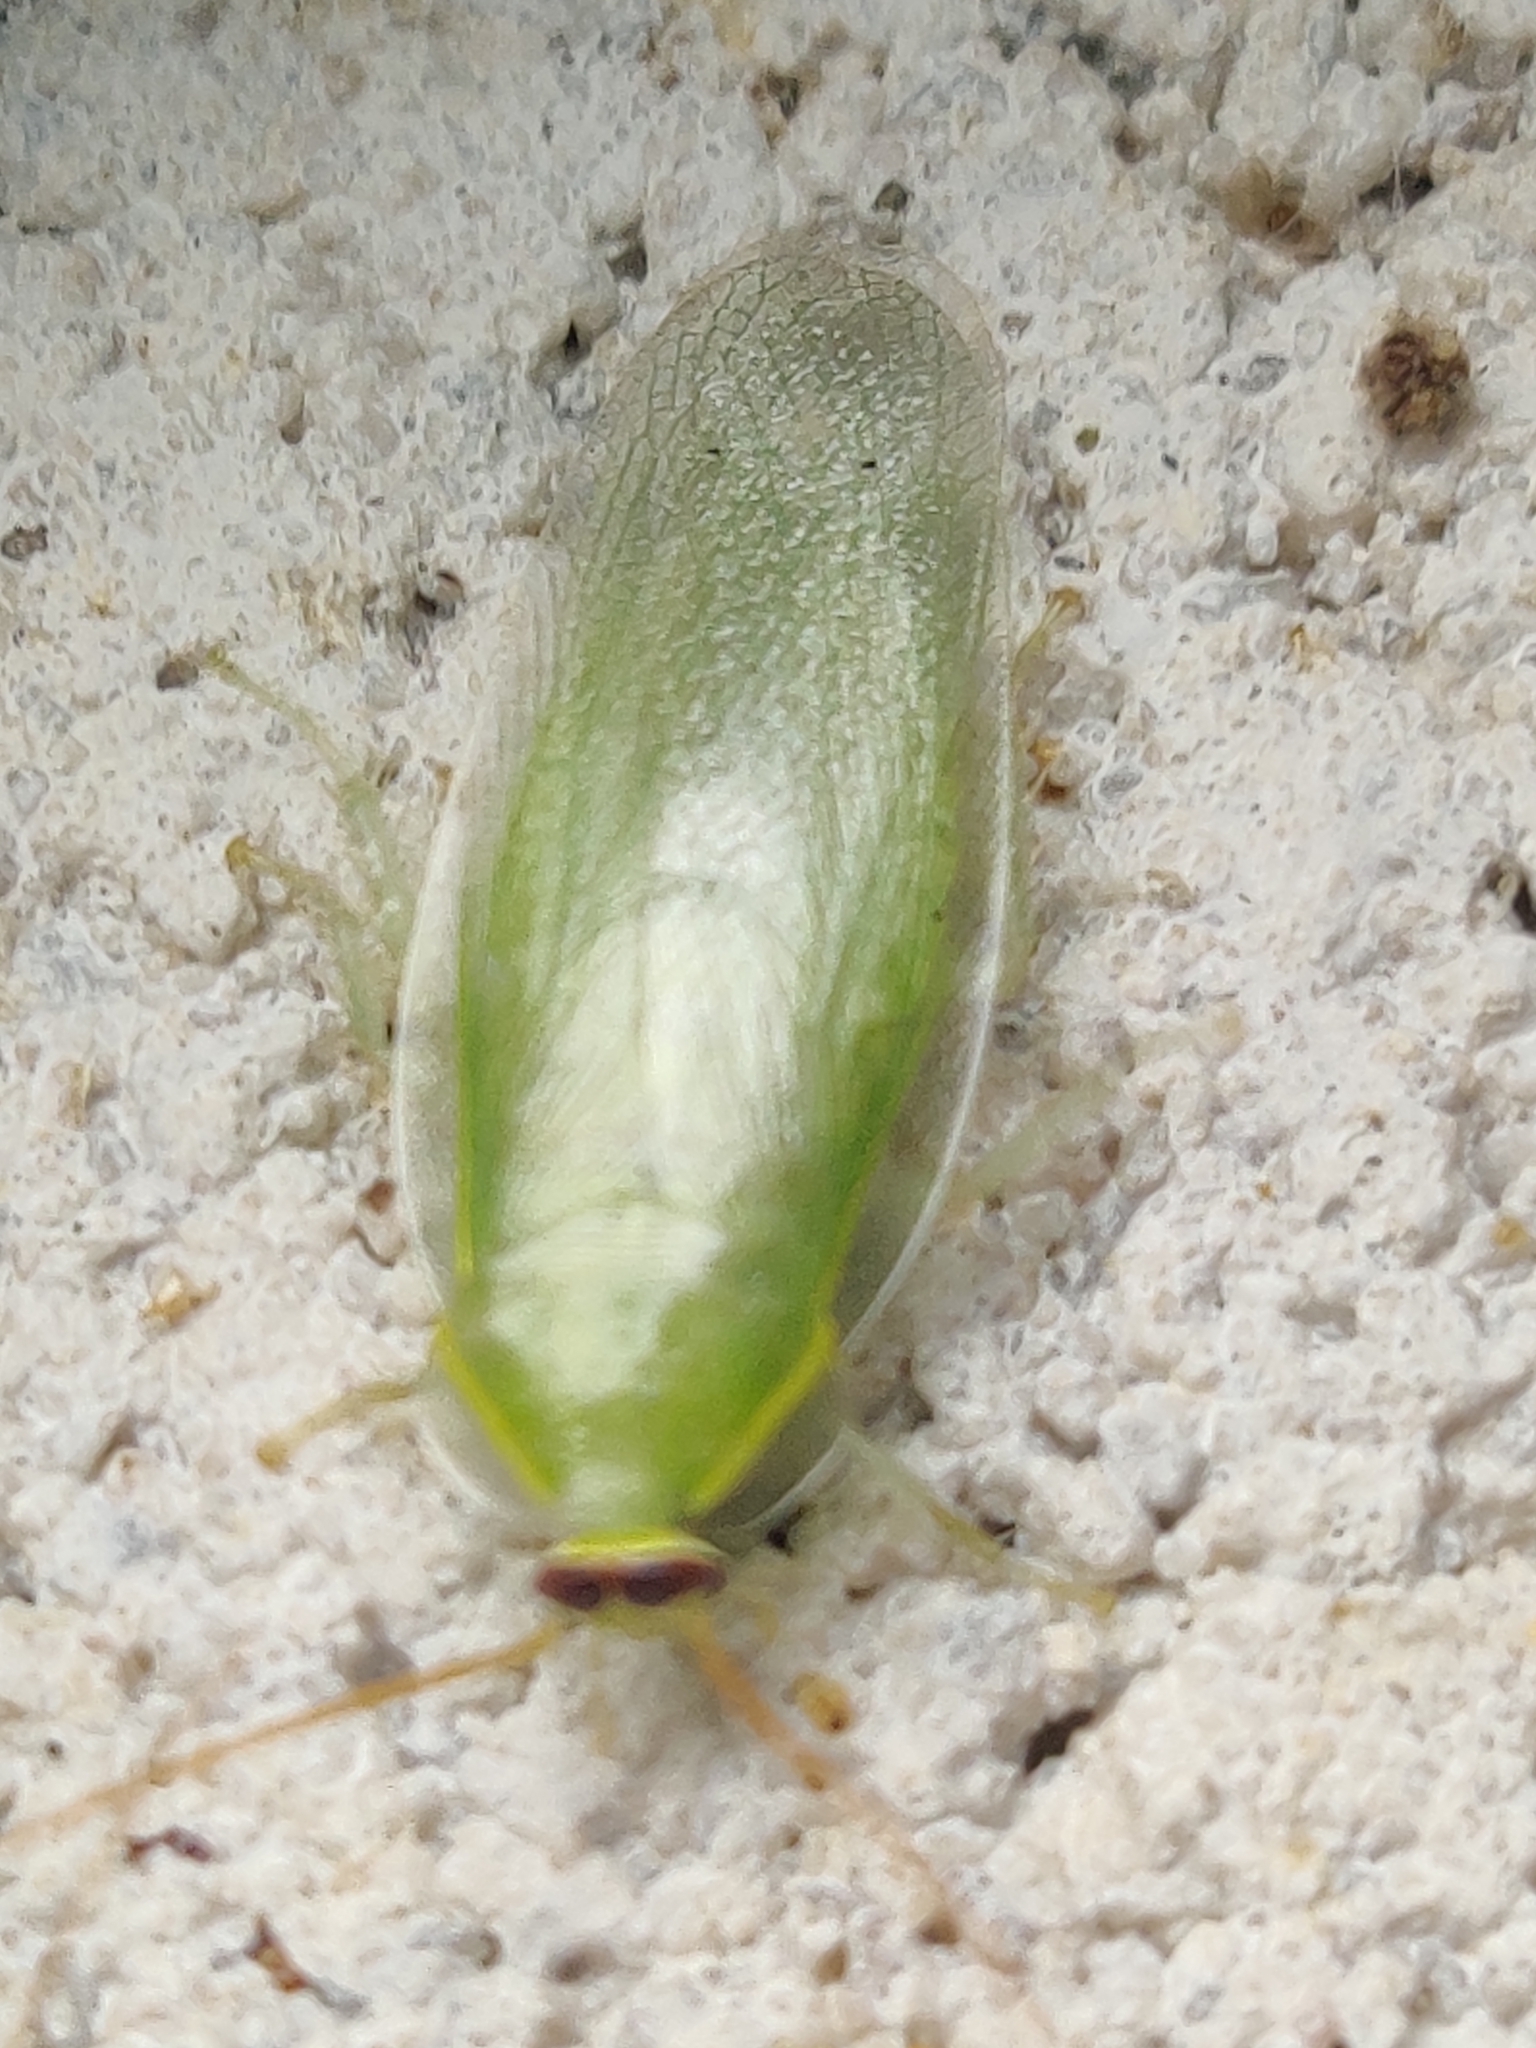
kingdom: Animalia
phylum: Arthropoda
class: Insecta
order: Blattodea
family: Blaberidae
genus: Panchlora
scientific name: Panchlora nivea
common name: Cuban cockroach
